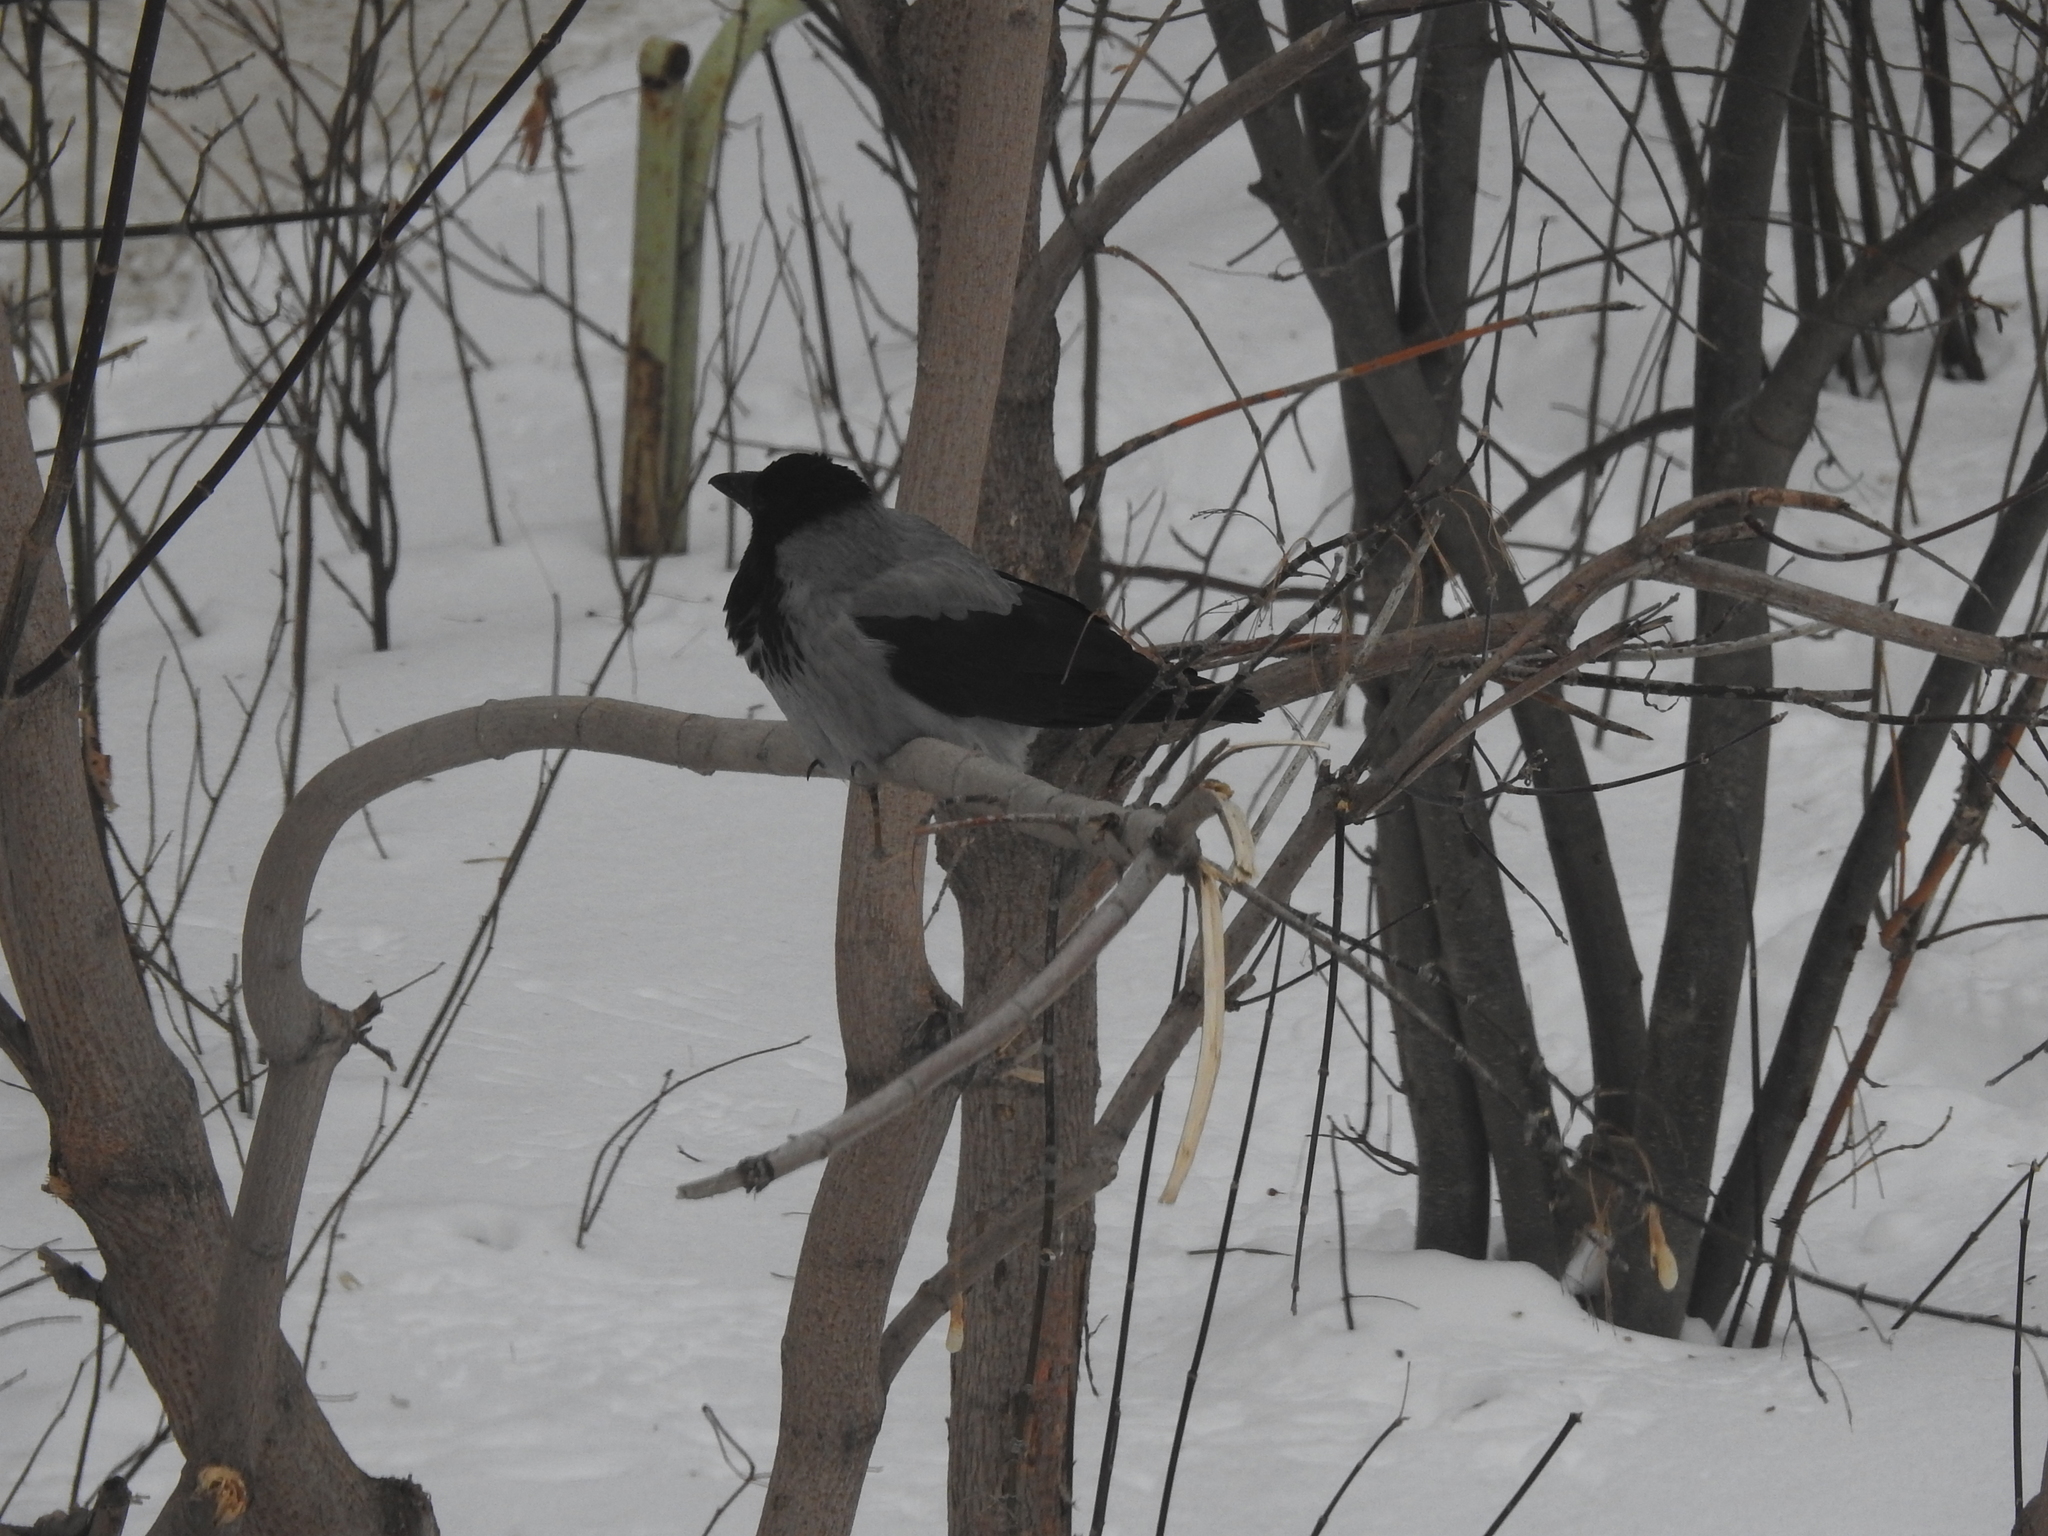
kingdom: Animalia
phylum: Chordata
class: Aves
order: Passeriformes
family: Corvidae
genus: Corvus
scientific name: Corvus cornix
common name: Hooded crow
